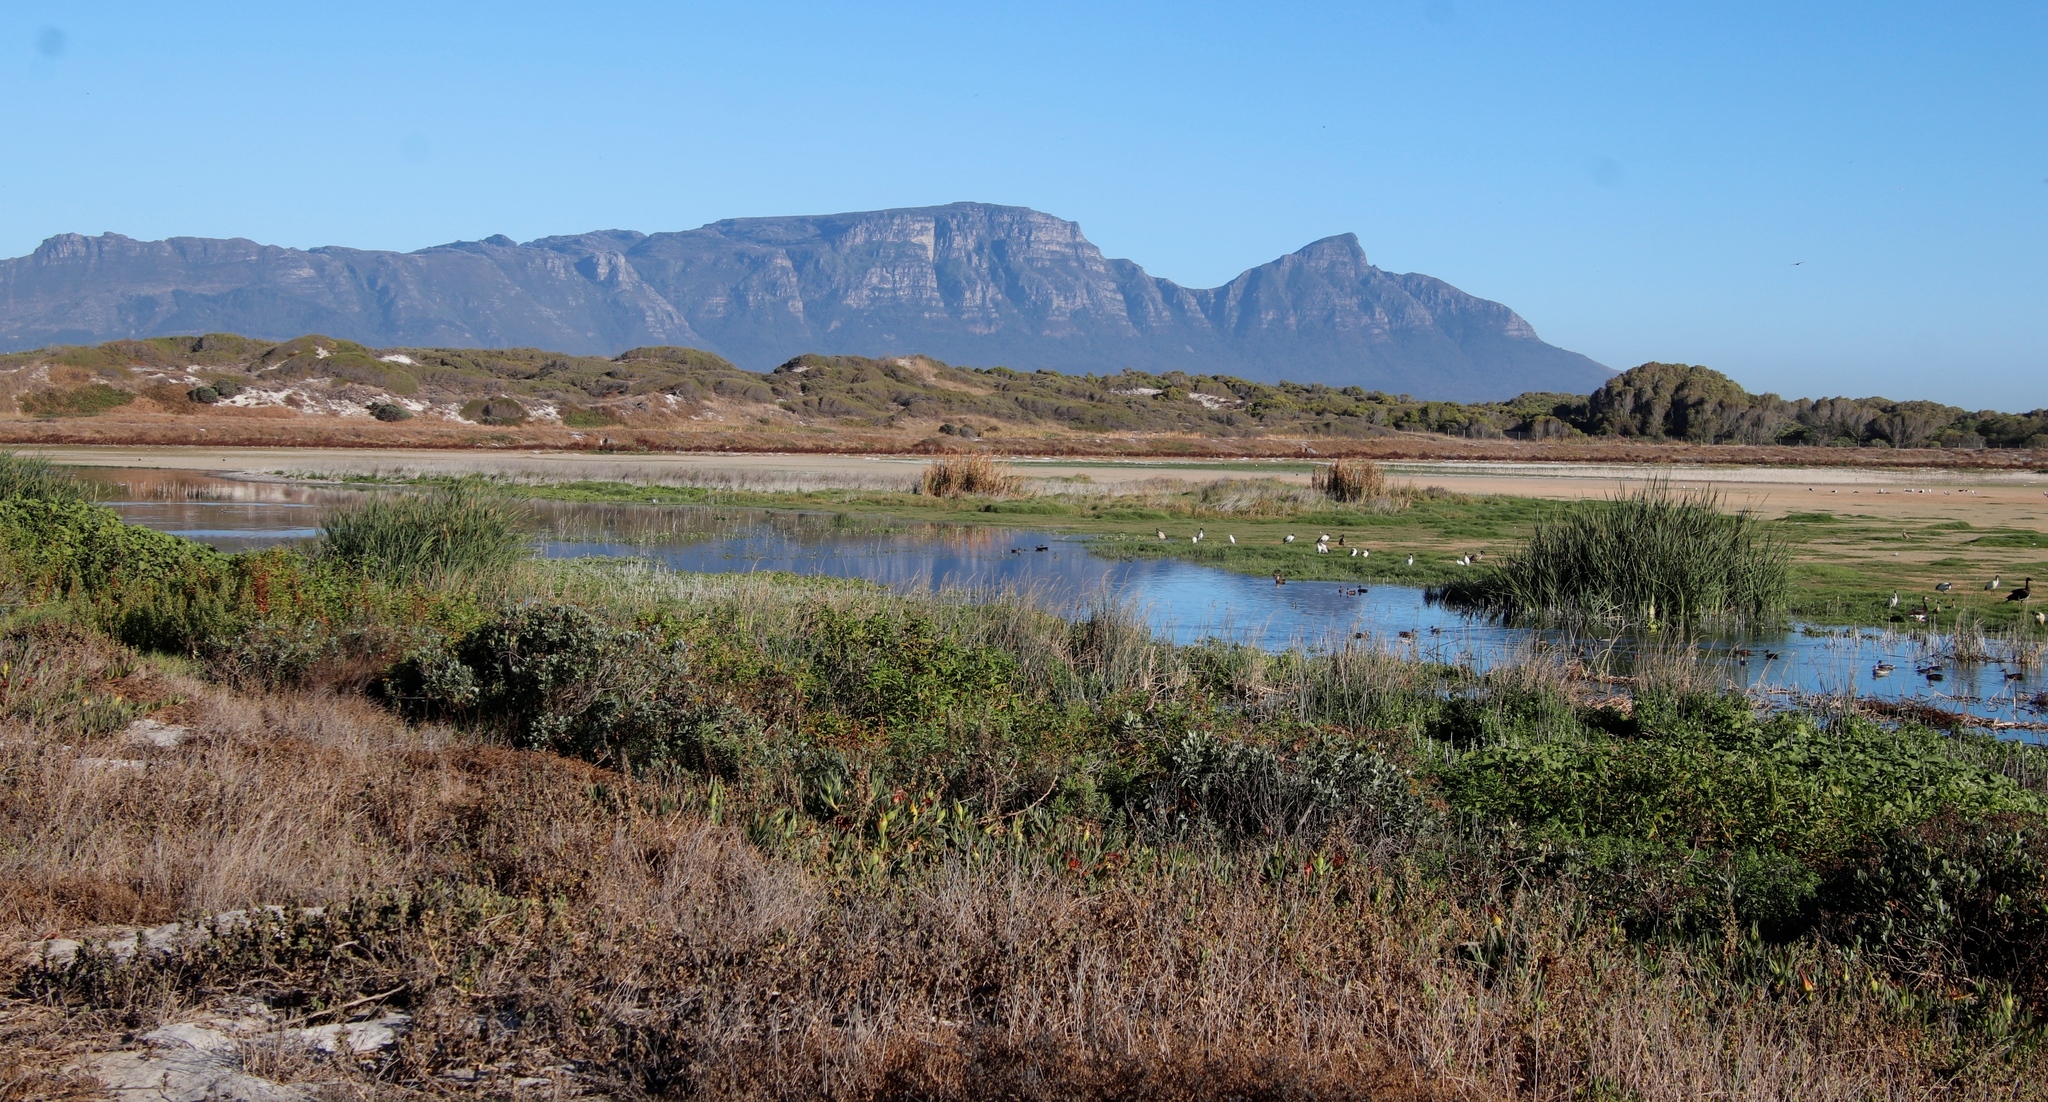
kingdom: Plantae
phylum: Tracheophyta
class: Liliopsida
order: Poales
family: Typhaceae
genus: Typha
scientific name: Typha capensis
